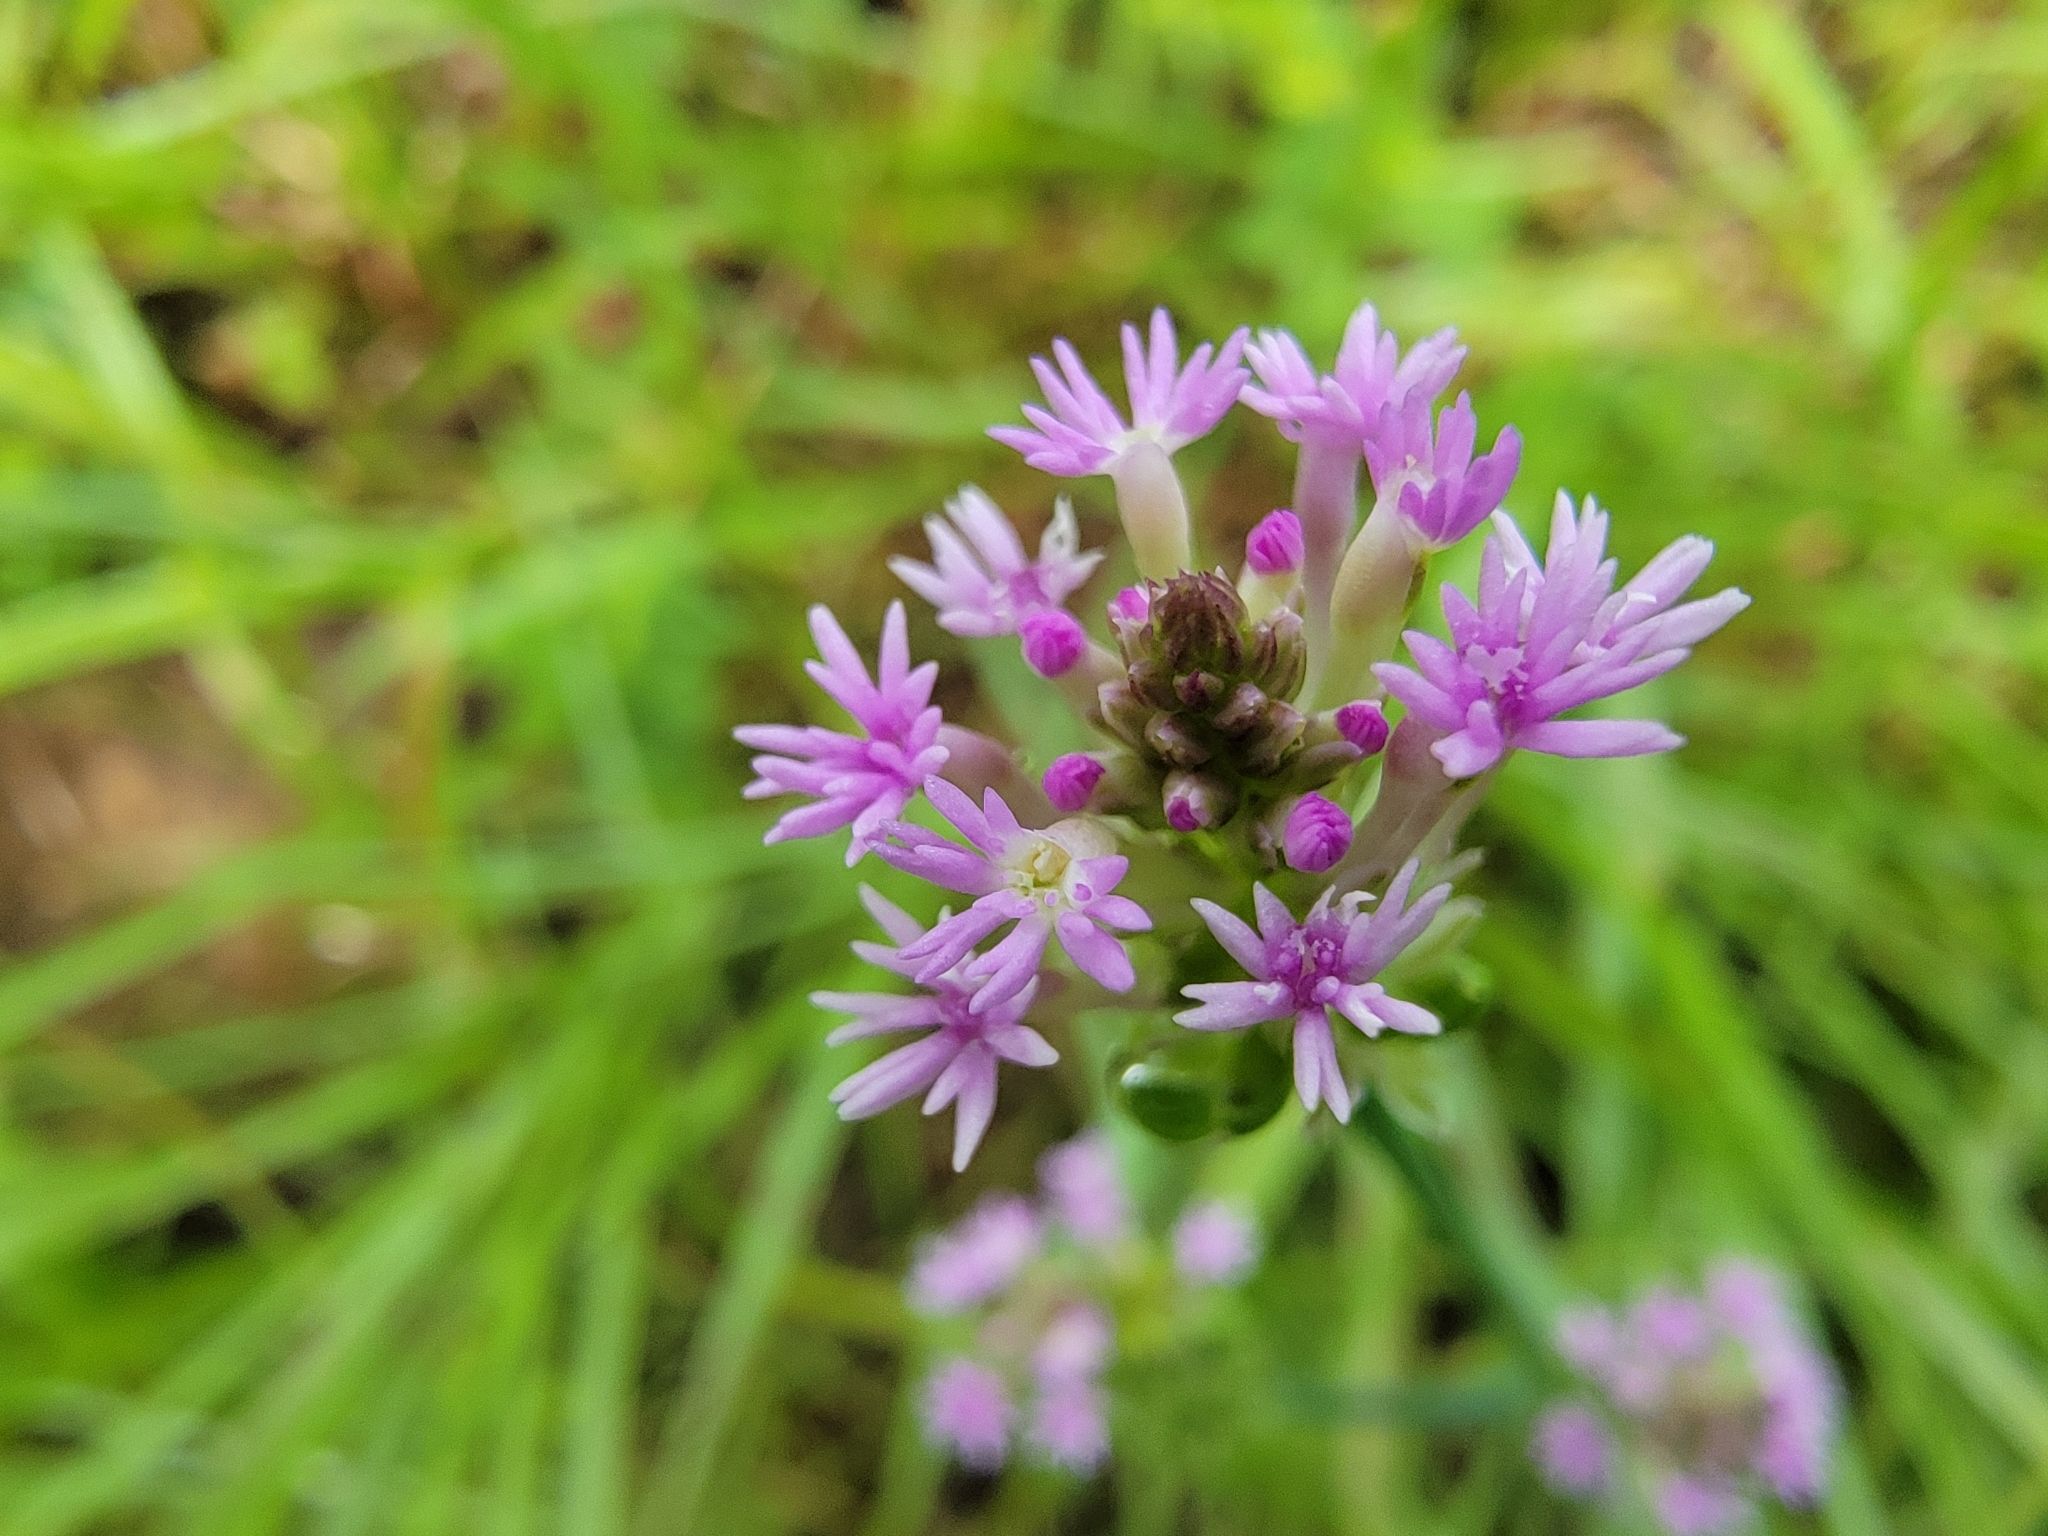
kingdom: Plantae
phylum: Tracheophyta
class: Magnoliopsida
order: Fabales
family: Polygalaceae
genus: Polygala
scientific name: Polygala incarnata
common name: Pink milkwort
